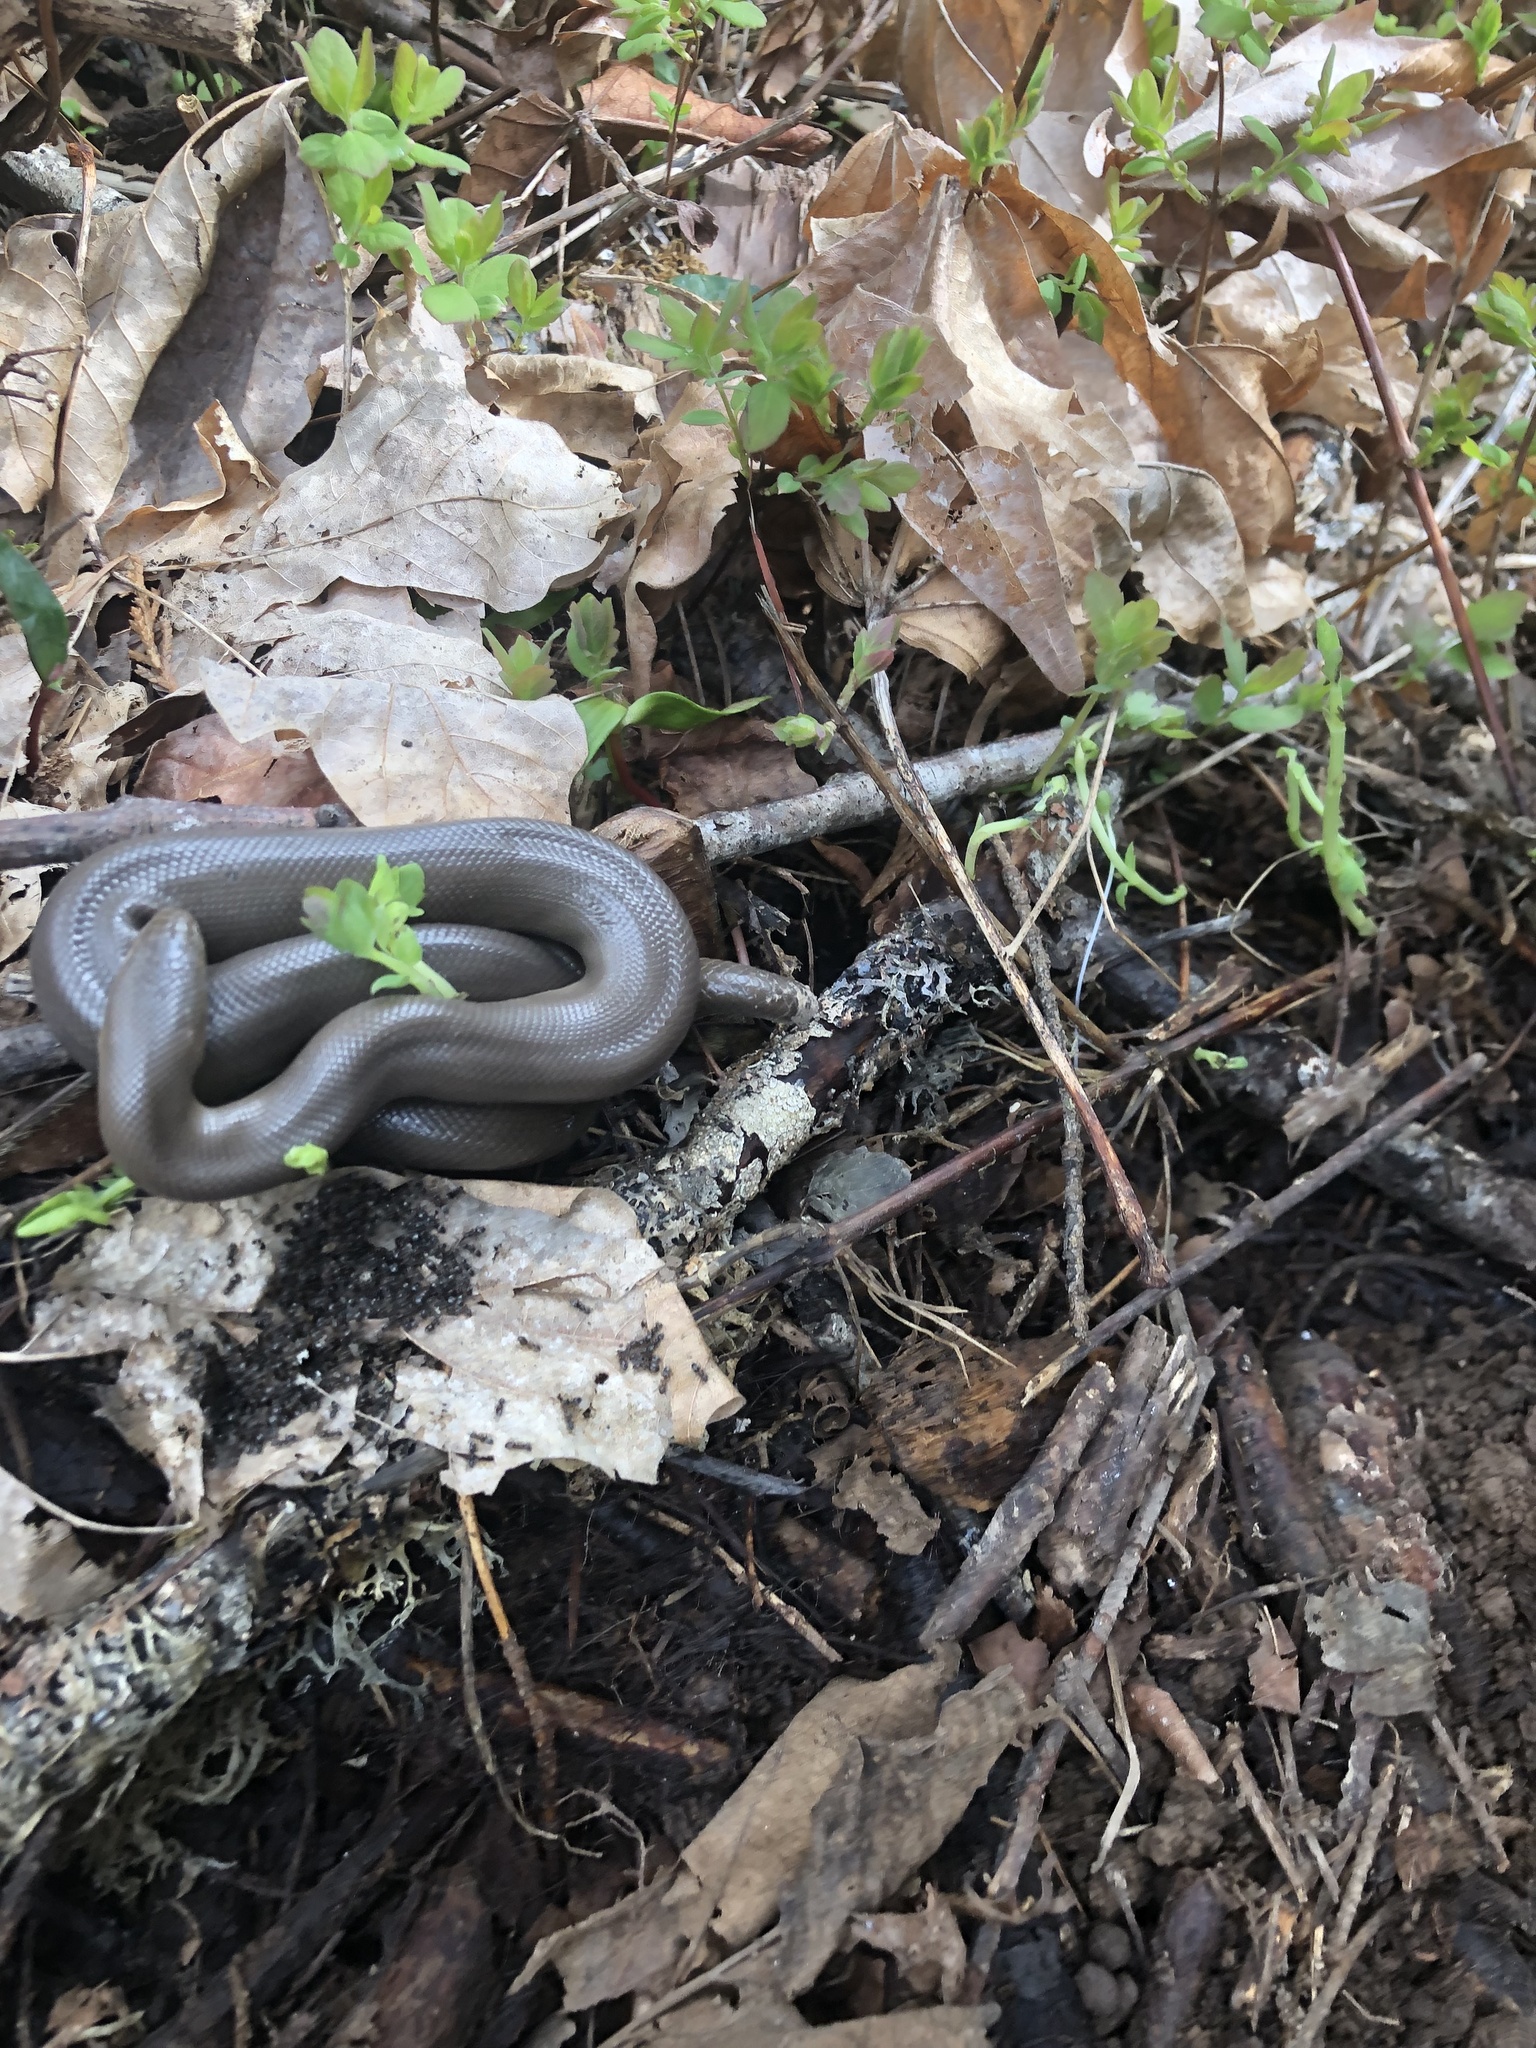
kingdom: Animalia
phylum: Chordata
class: Squamata
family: Boidae
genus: Charina
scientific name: Charina bottae
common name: Northern rubber boa
